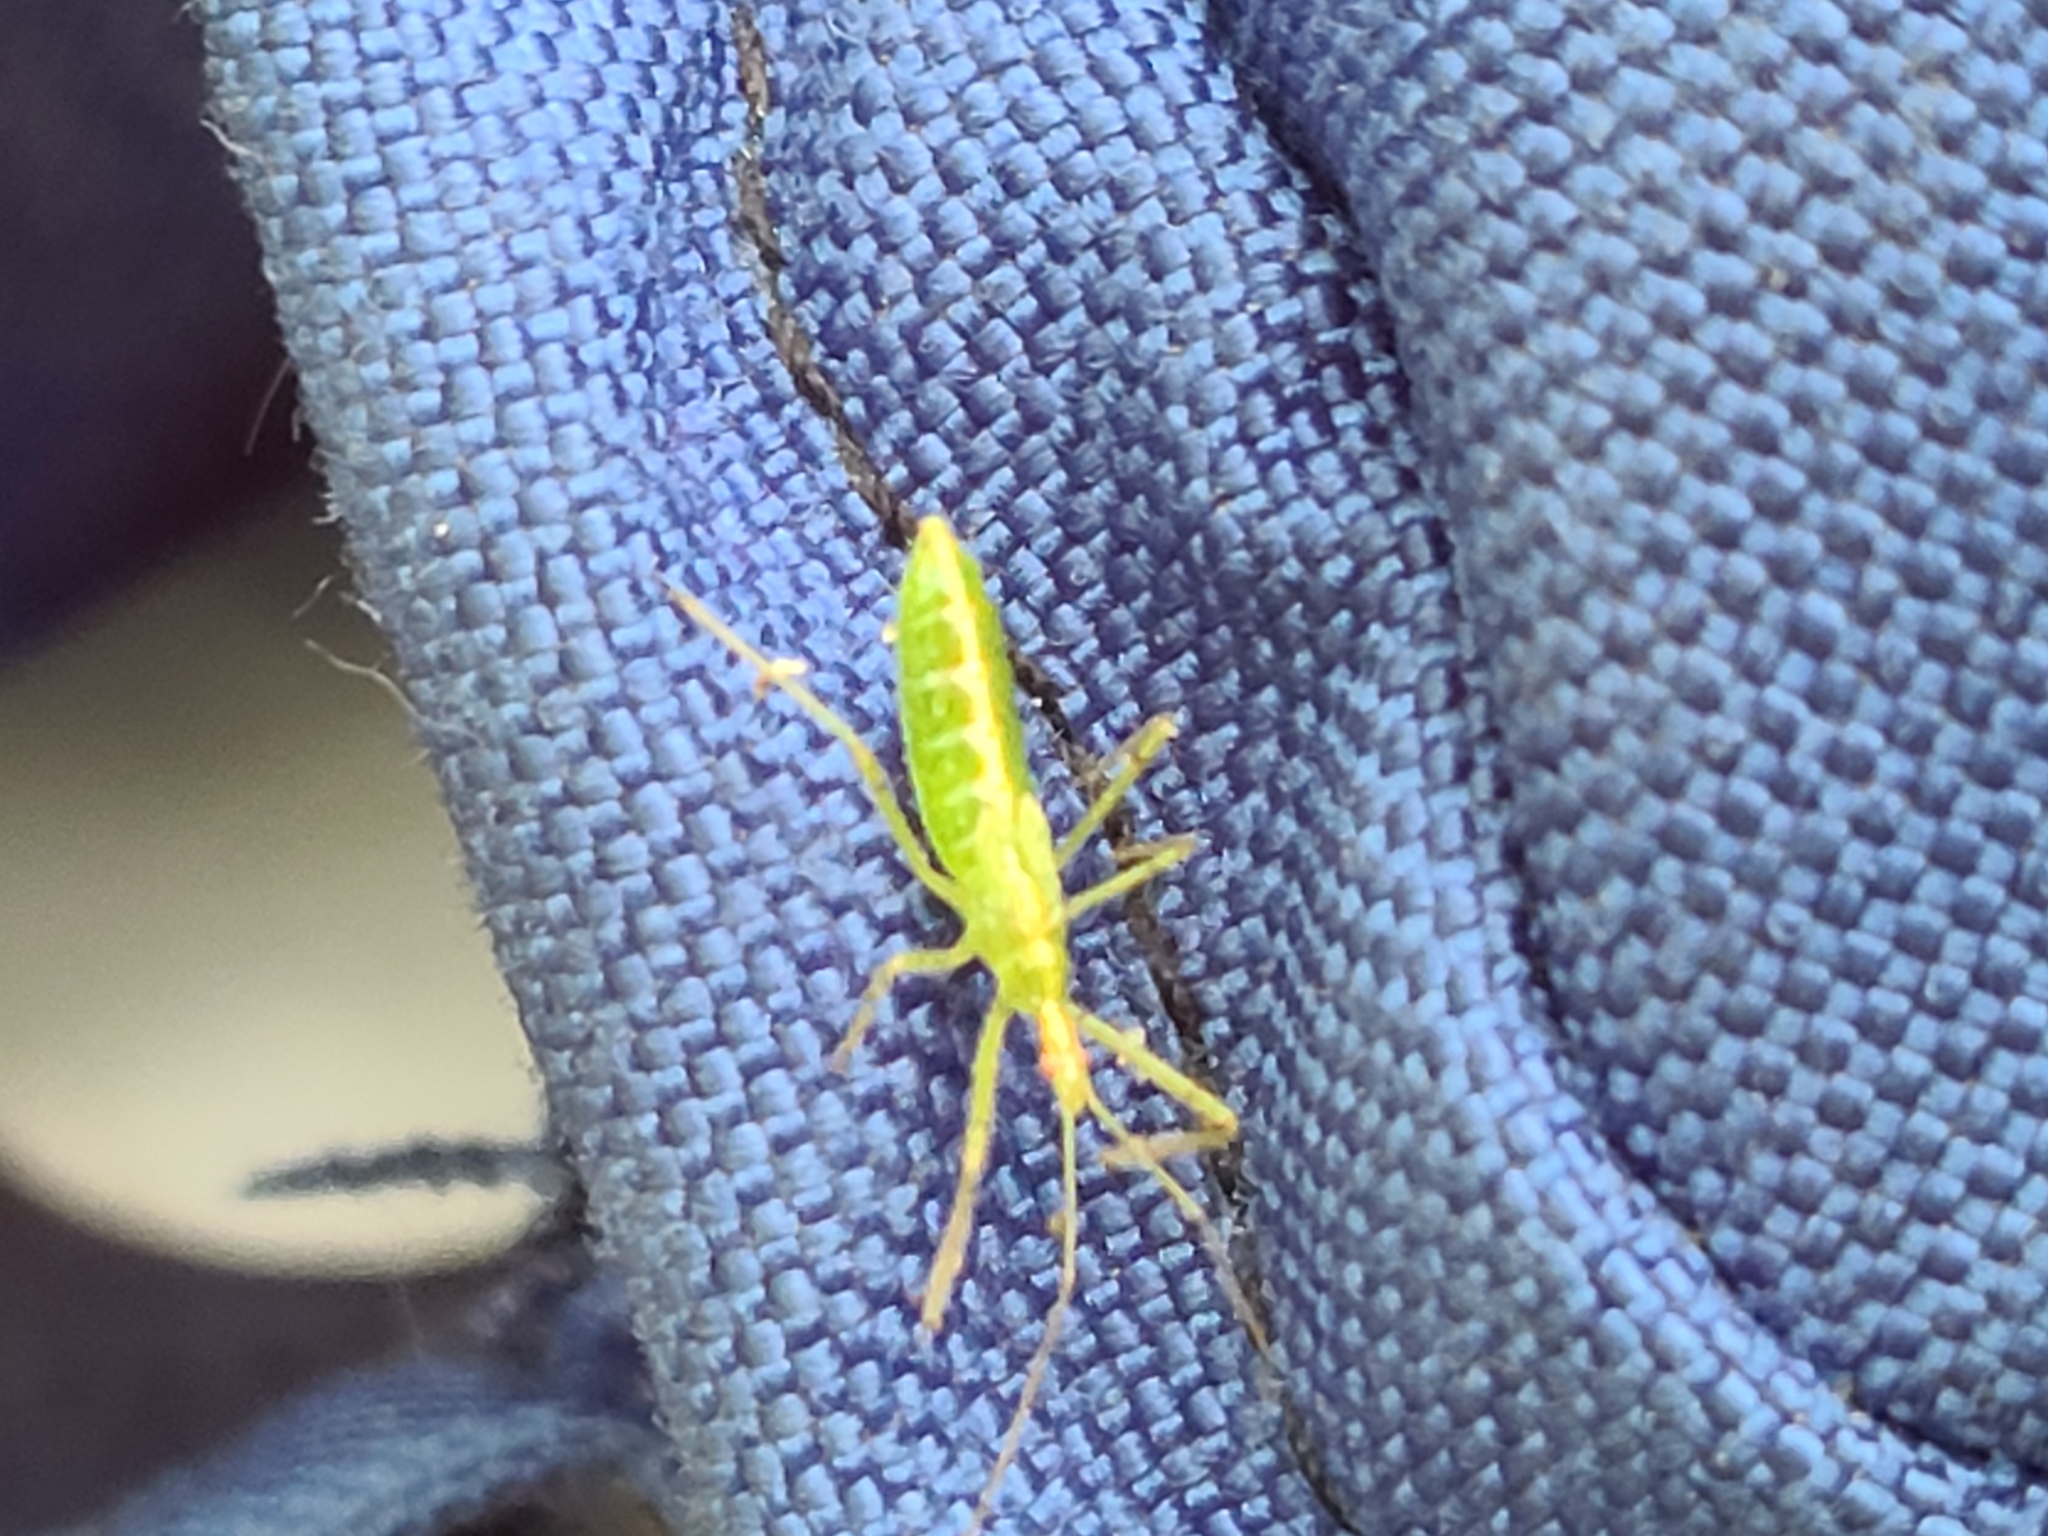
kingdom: Animalia
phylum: Arthropoda
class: Insecta
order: Hemiptera
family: Reduviidae
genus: Zelus
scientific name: Zelus luridus
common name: Pale green assassin bug
